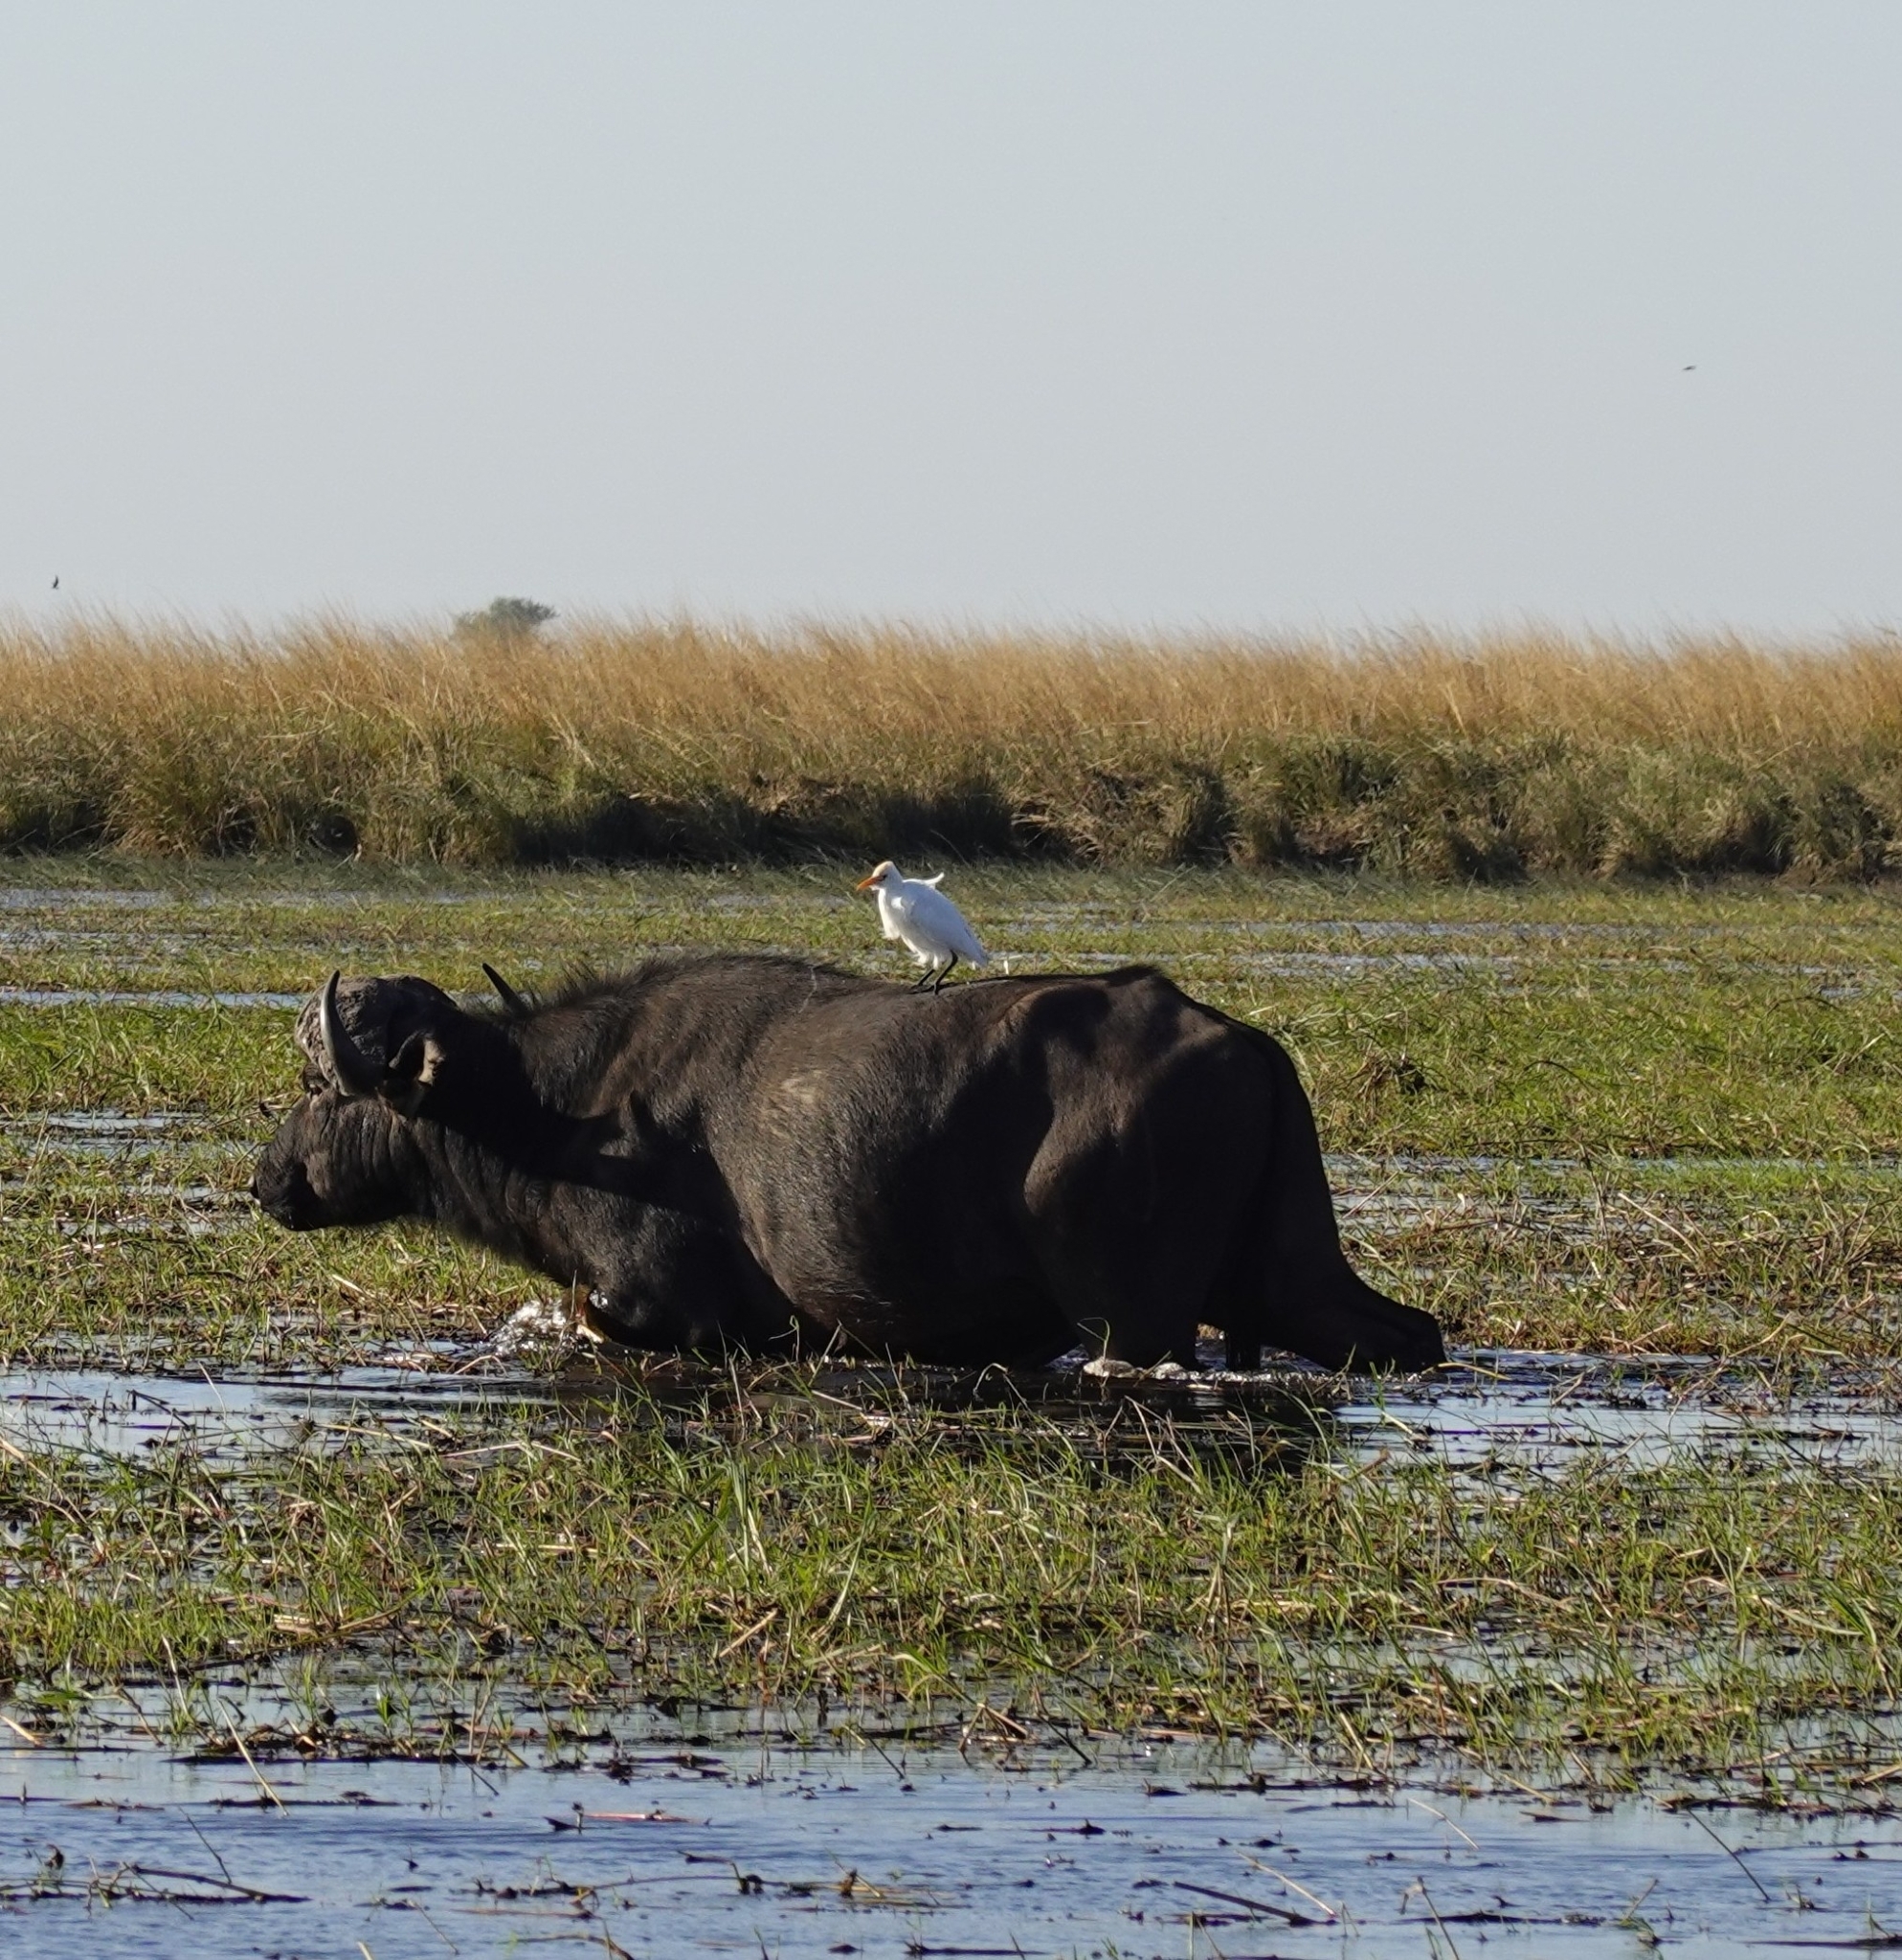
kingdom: Animalia
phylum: Chordata
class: Aves
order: Pelecaniformes
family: Ardeidae
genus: Bubulcus
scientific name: Bubulcus ibis
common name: Cattle egret
